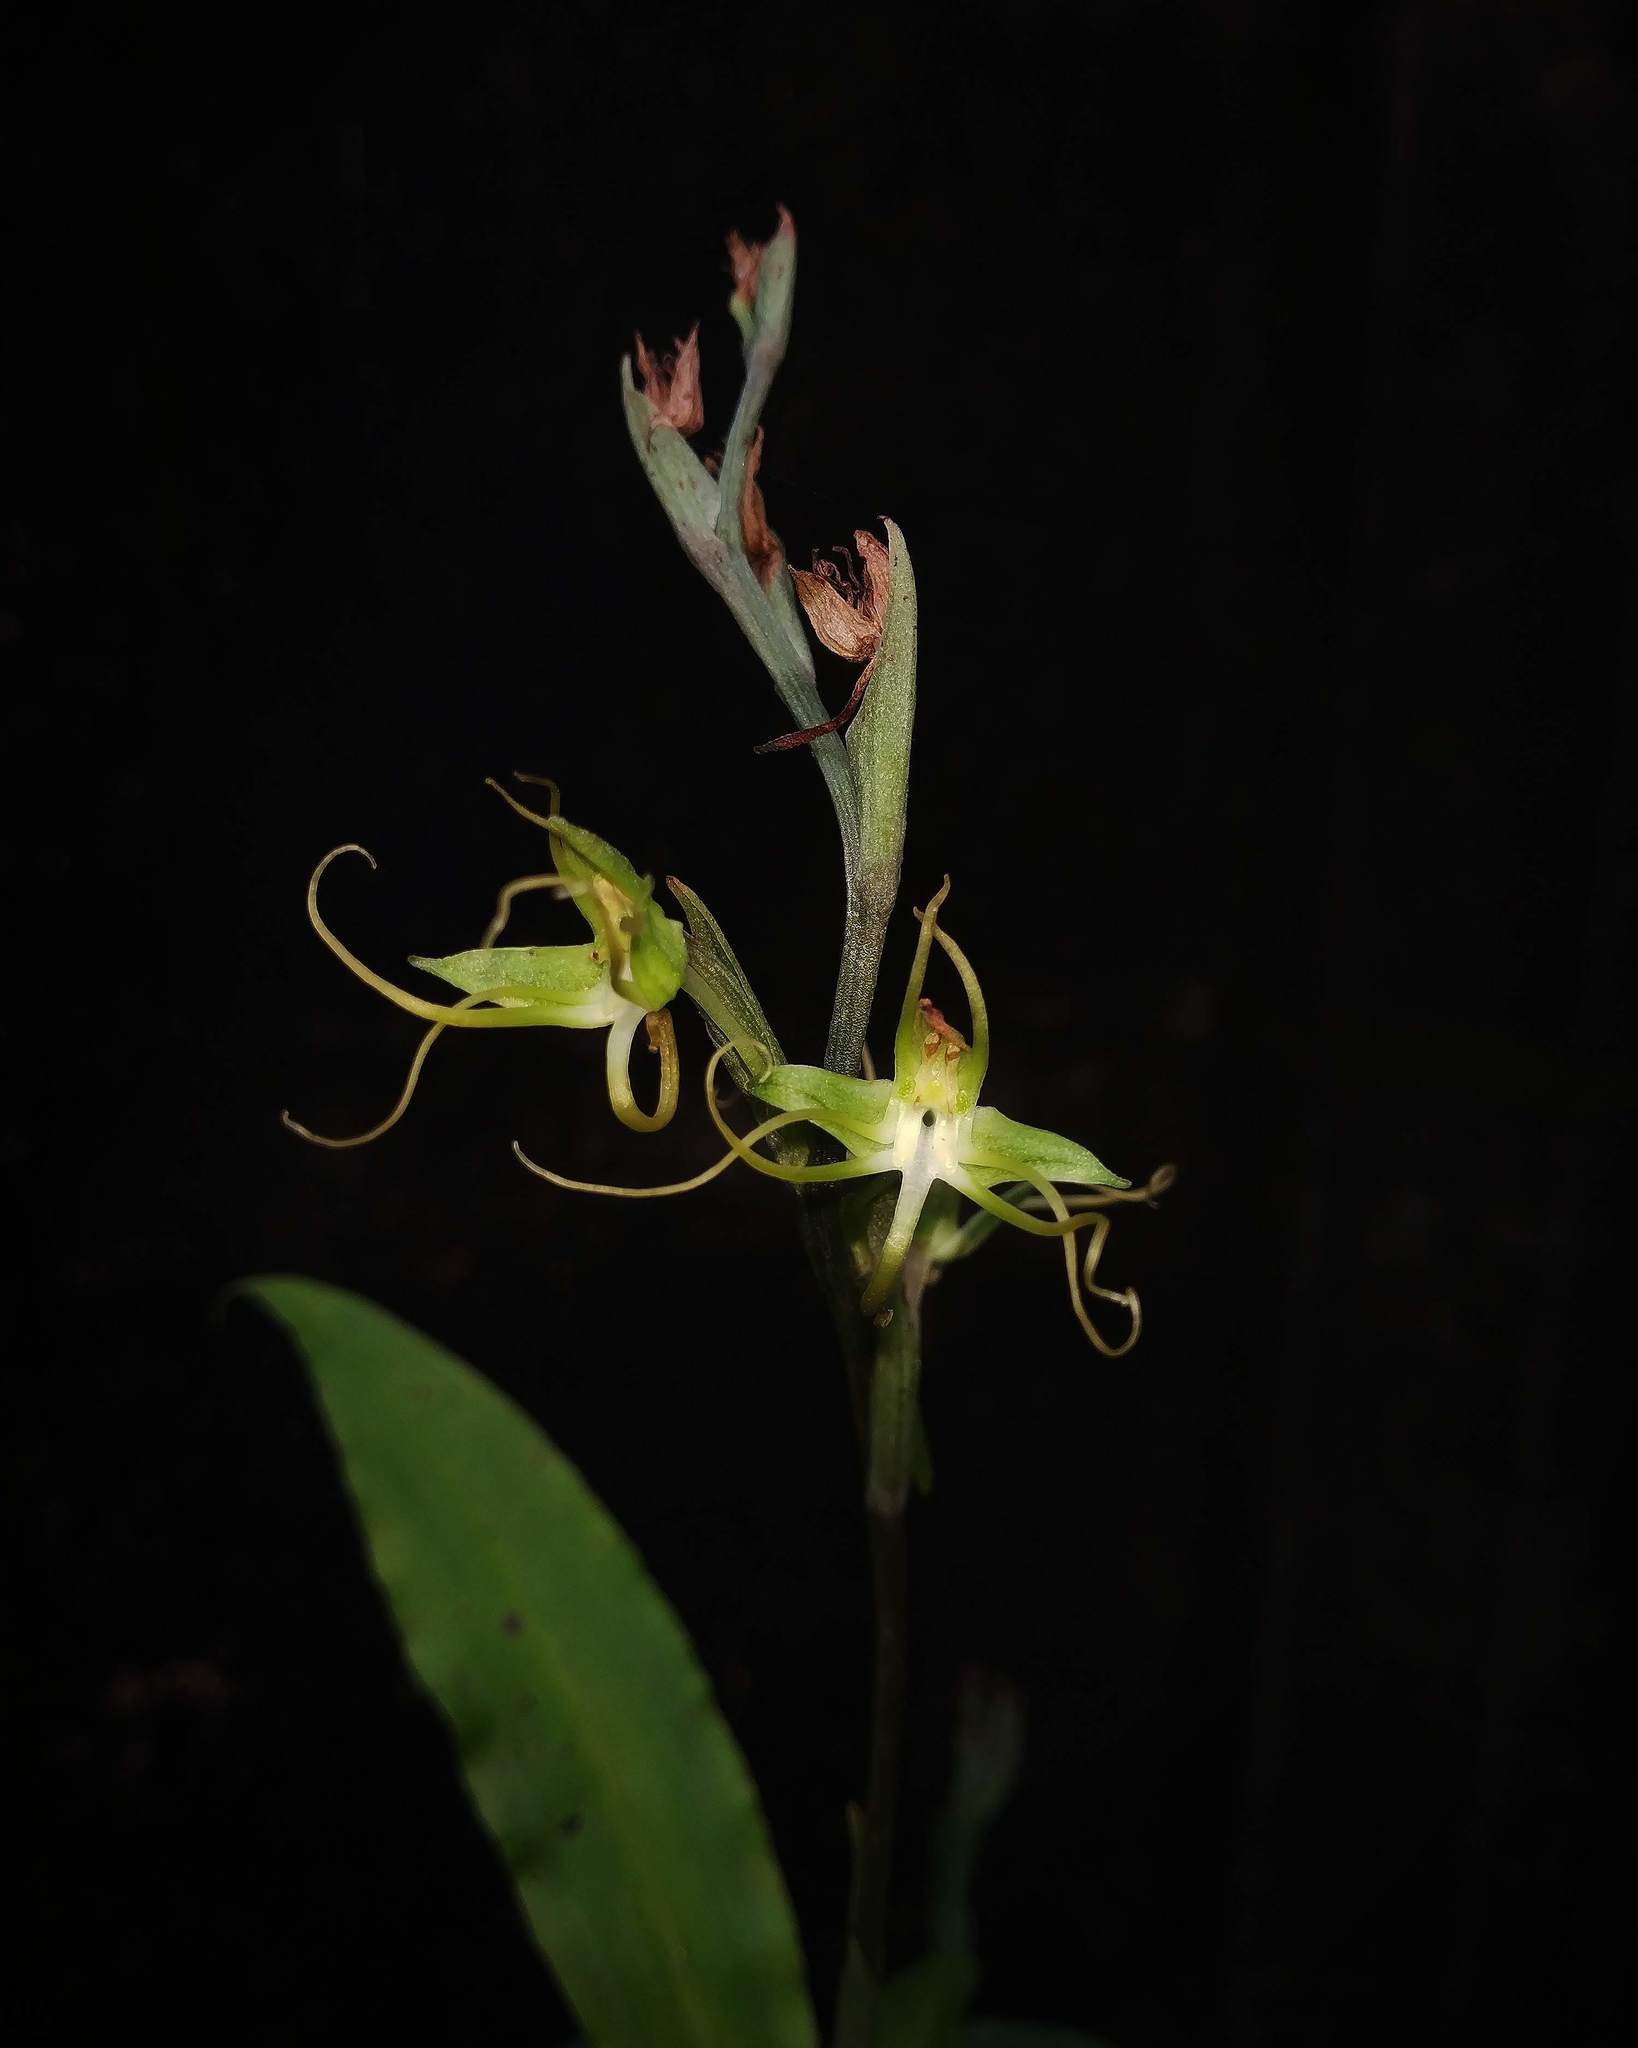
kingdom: Plantae
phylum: Tracheophyta
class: Liliopsida
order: Asparagales
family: Orchidaceae
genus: Habenaria
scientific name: Habenaria multicaudata
